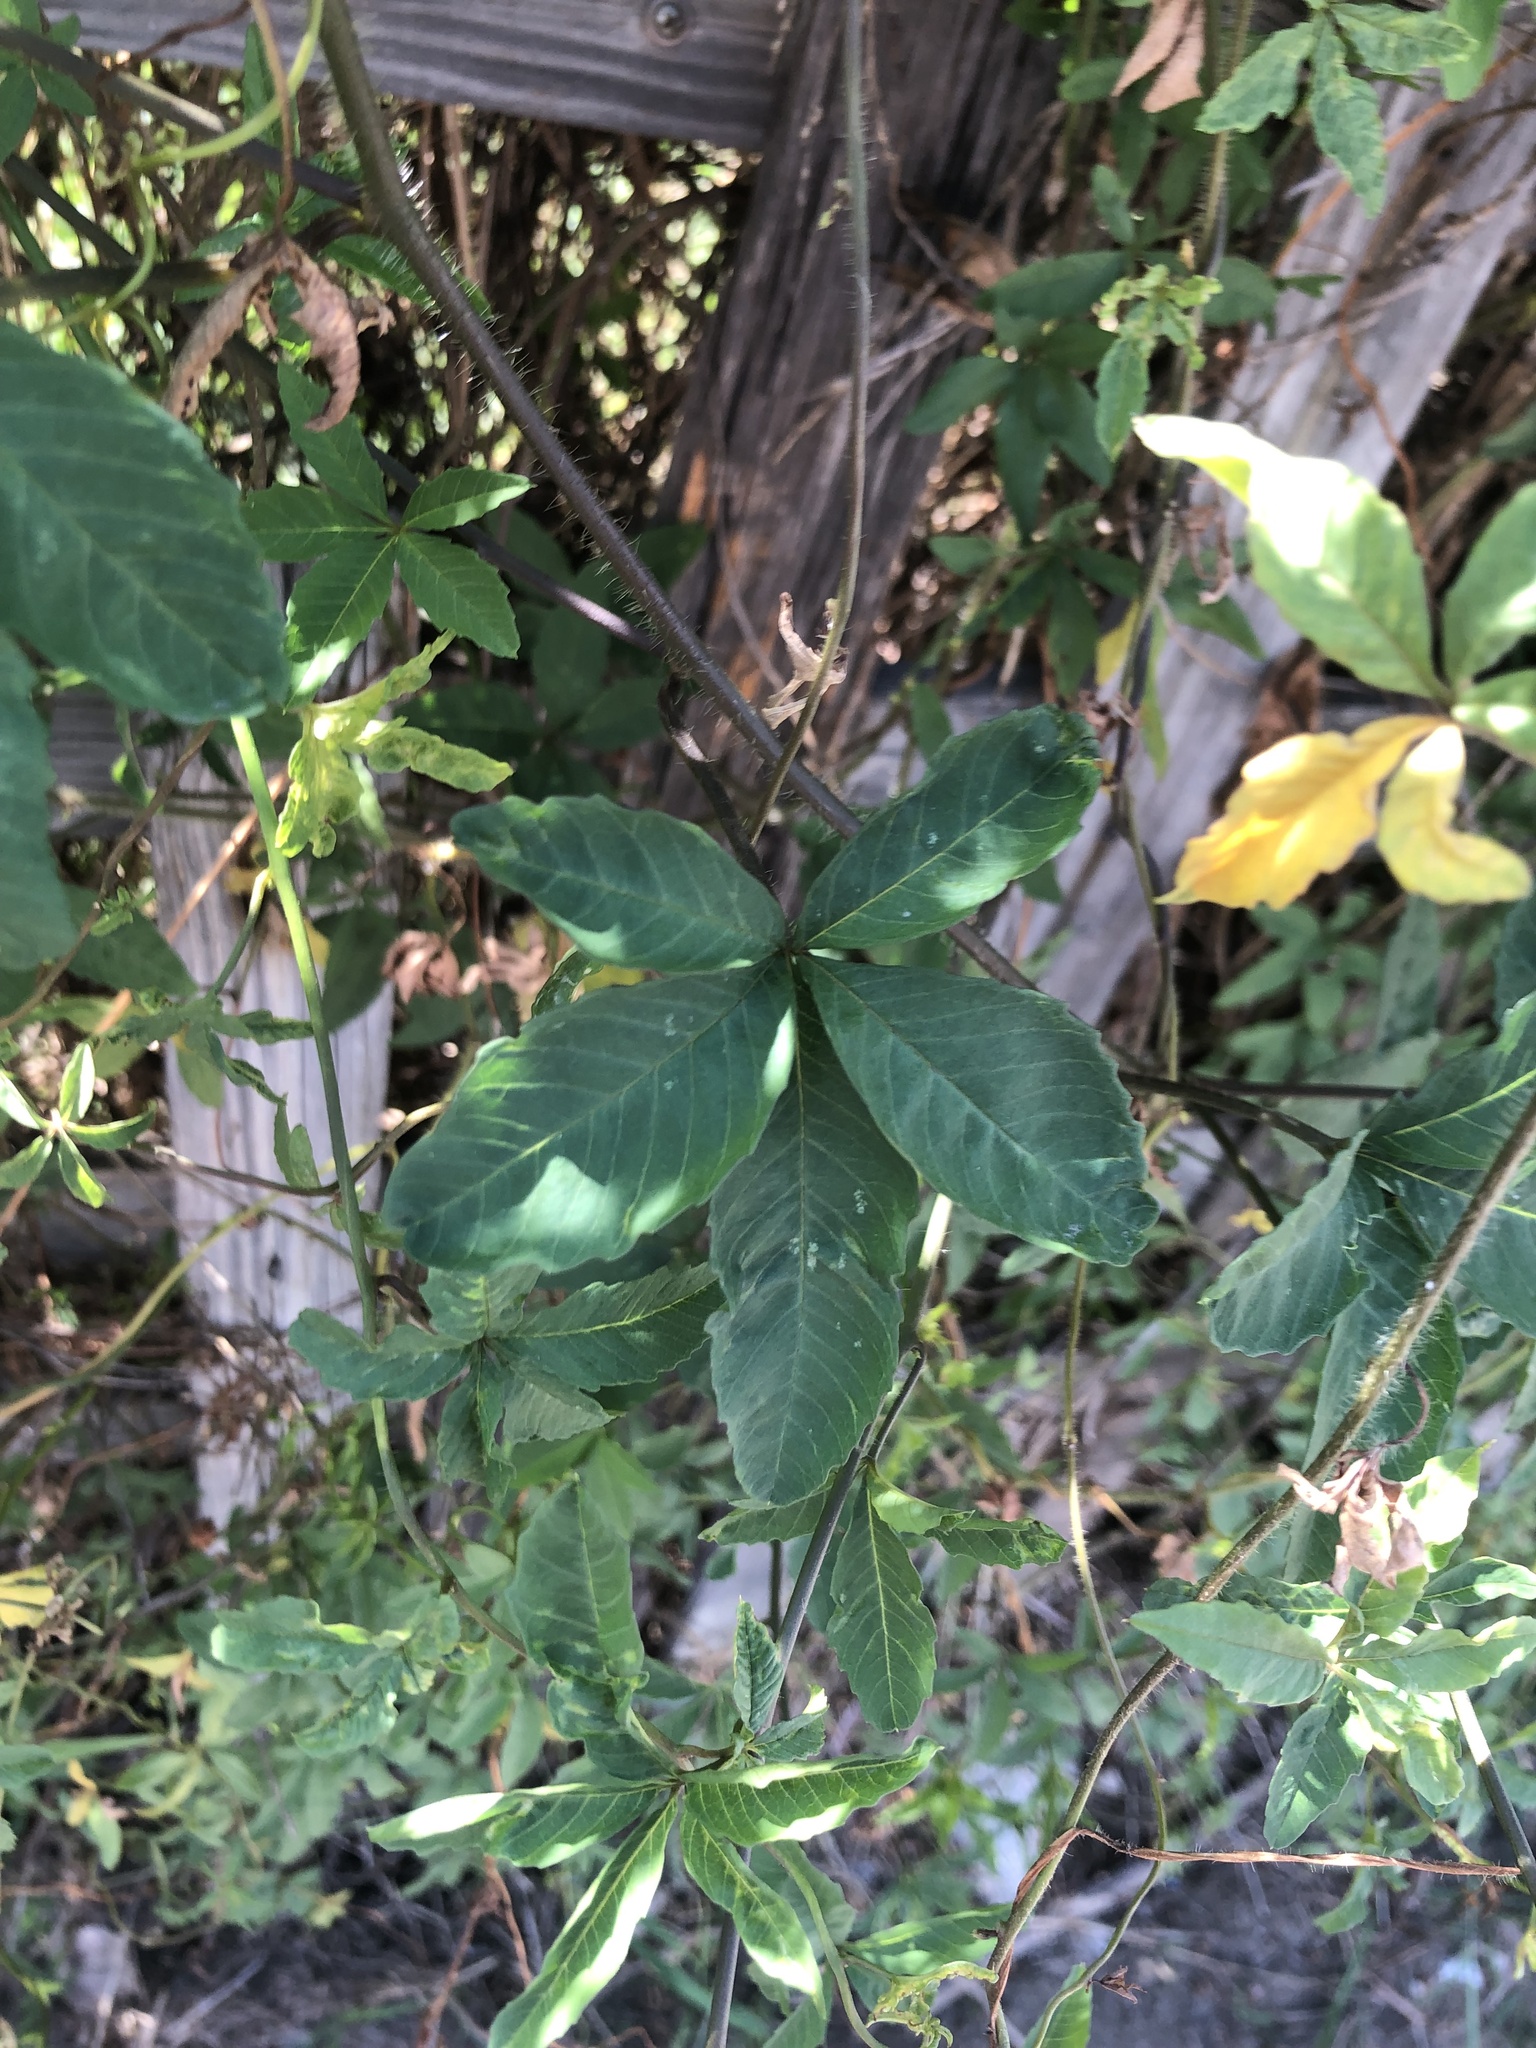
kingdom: Plantae
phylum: Tracheophyta
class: Magnoliopsida
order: Solanales
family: Convolvulaceae
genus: Distimake
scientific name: Distimake quinquefolius
